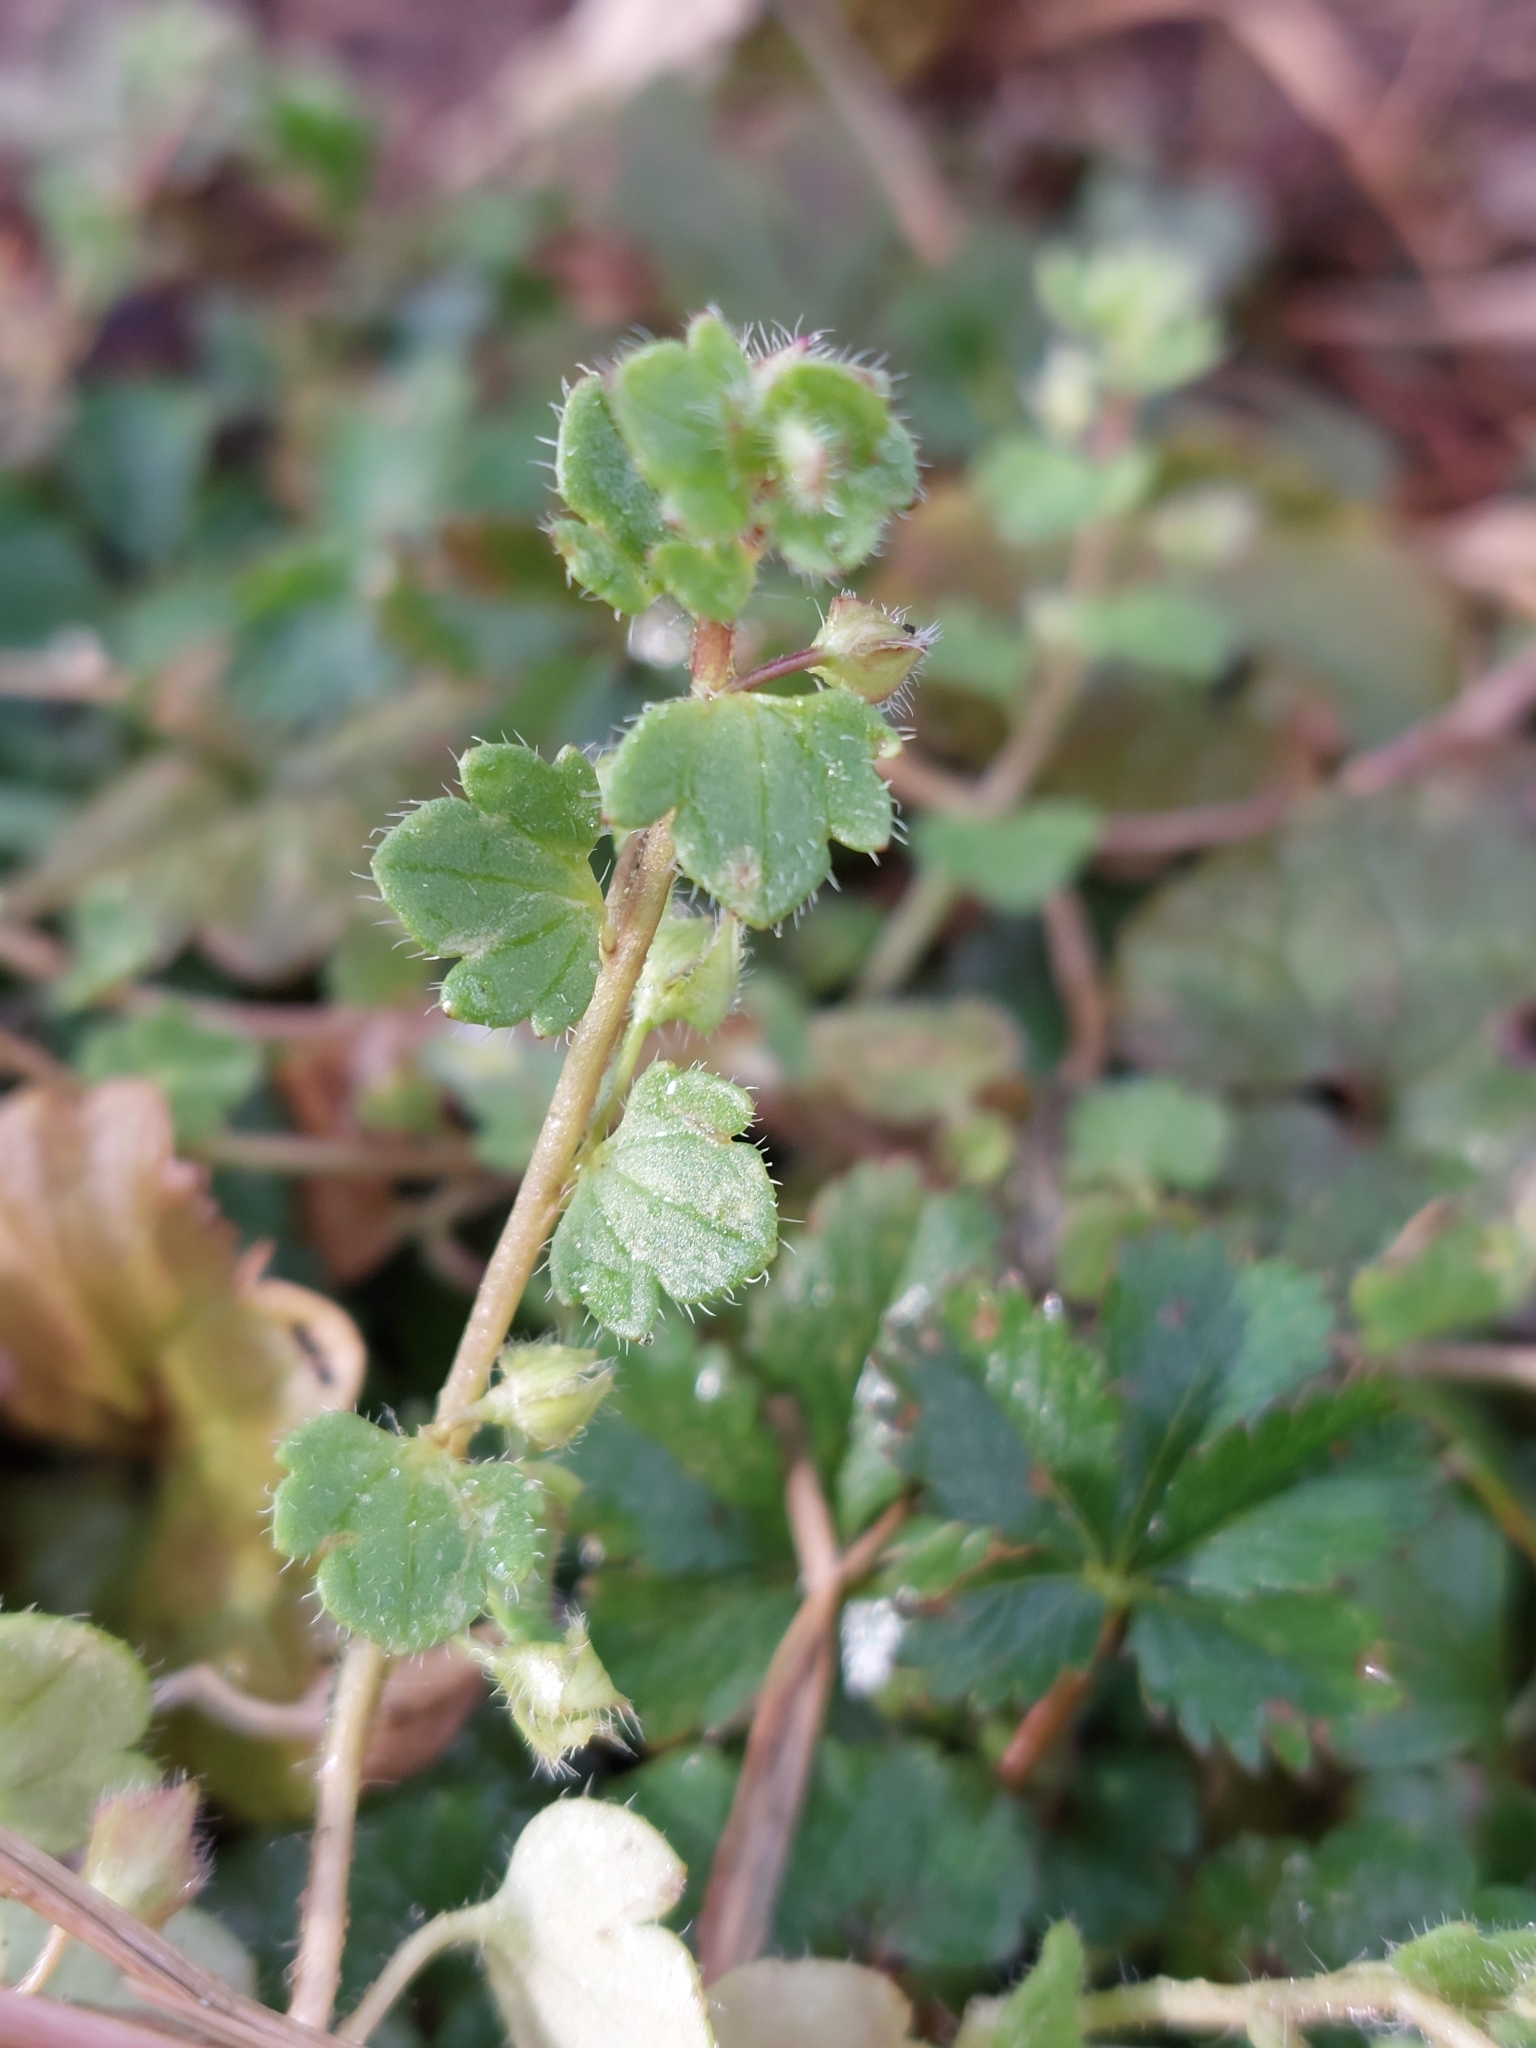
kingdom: Plantae
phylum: Tracheophyta
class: Magnoliopsida
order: Lamiales
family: Plantaginaceae
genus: Veronica
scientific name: Veronica hederifolia
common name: Ivy-leaved speedwell
